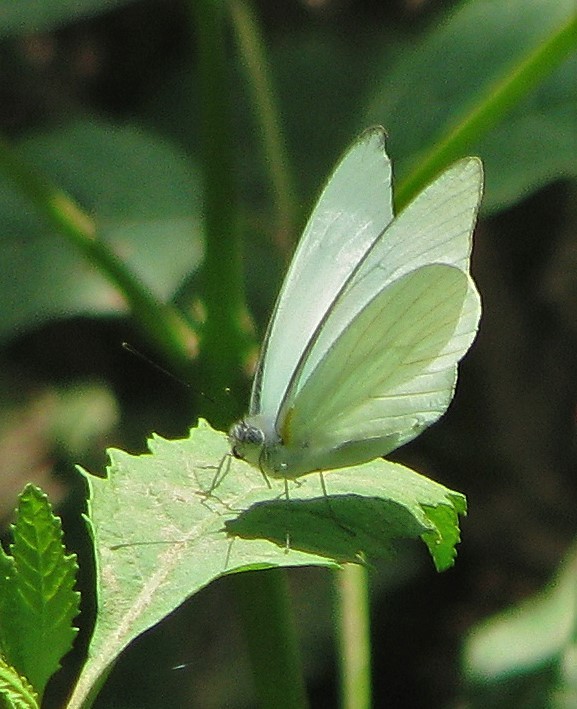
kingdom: Animalia
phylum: Arthropoda
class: Insecta
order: Lepidoptera
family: Pieridae
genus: Glutophrissa
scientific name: Glutophrissa drusilla
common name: Florida white
